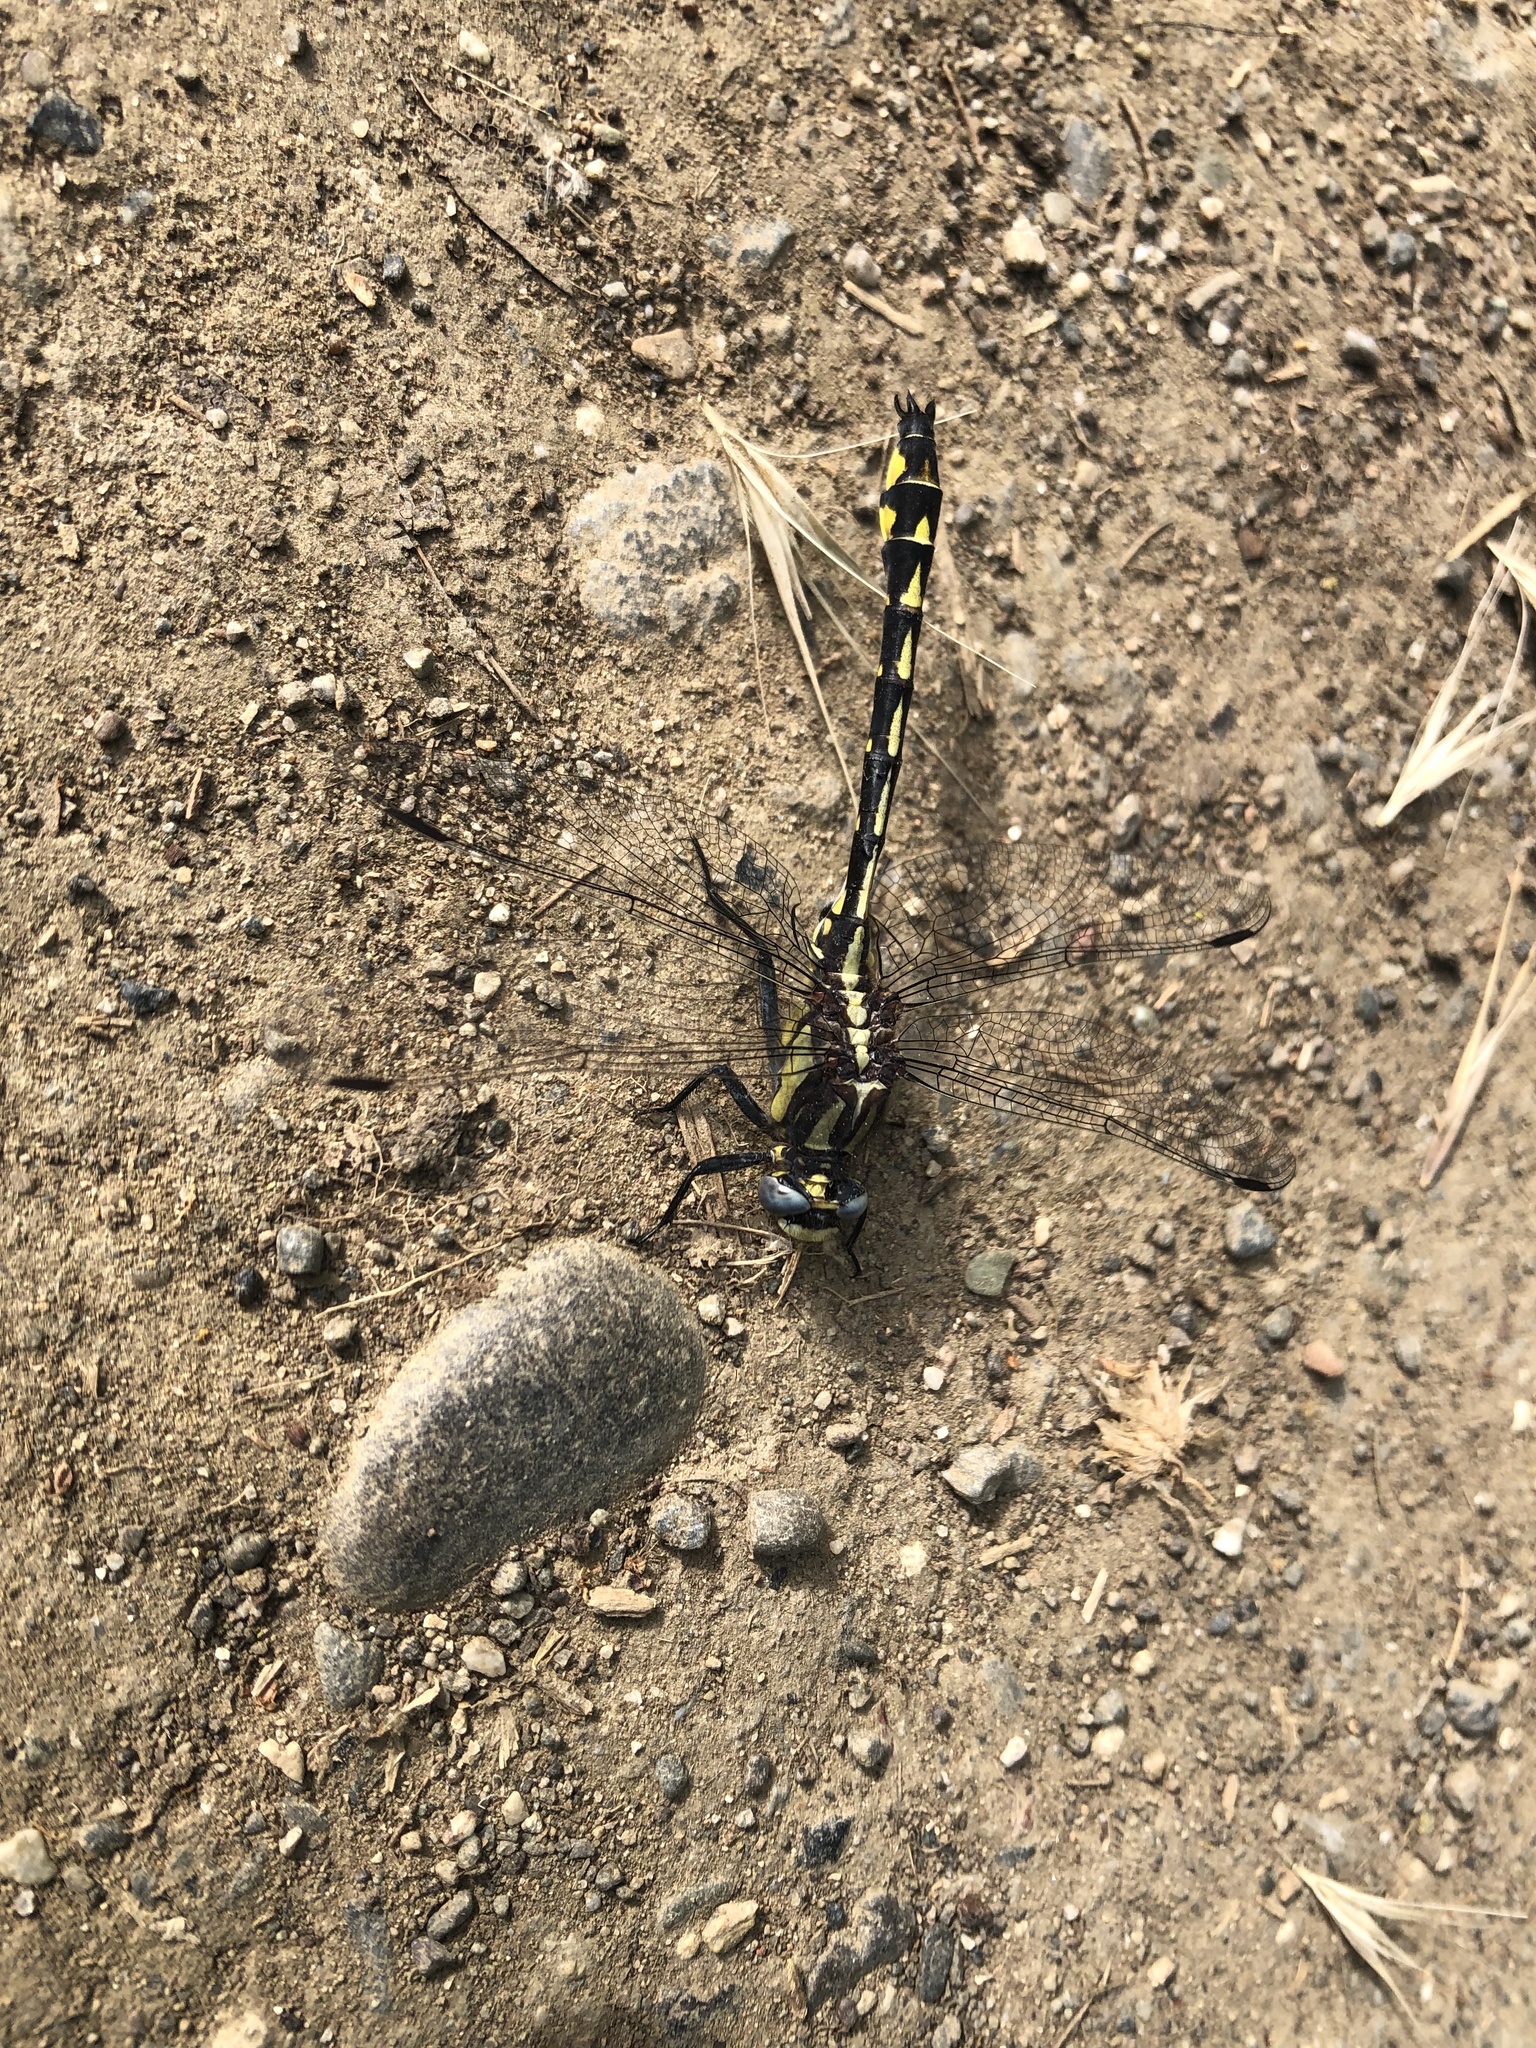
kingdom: Animalia
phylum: Arthropoda
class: Insecta
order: Odonata
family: Gomphidae
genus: Phanogomphus
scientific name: Phanogomphus kurilis
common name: Pacific clubtail
